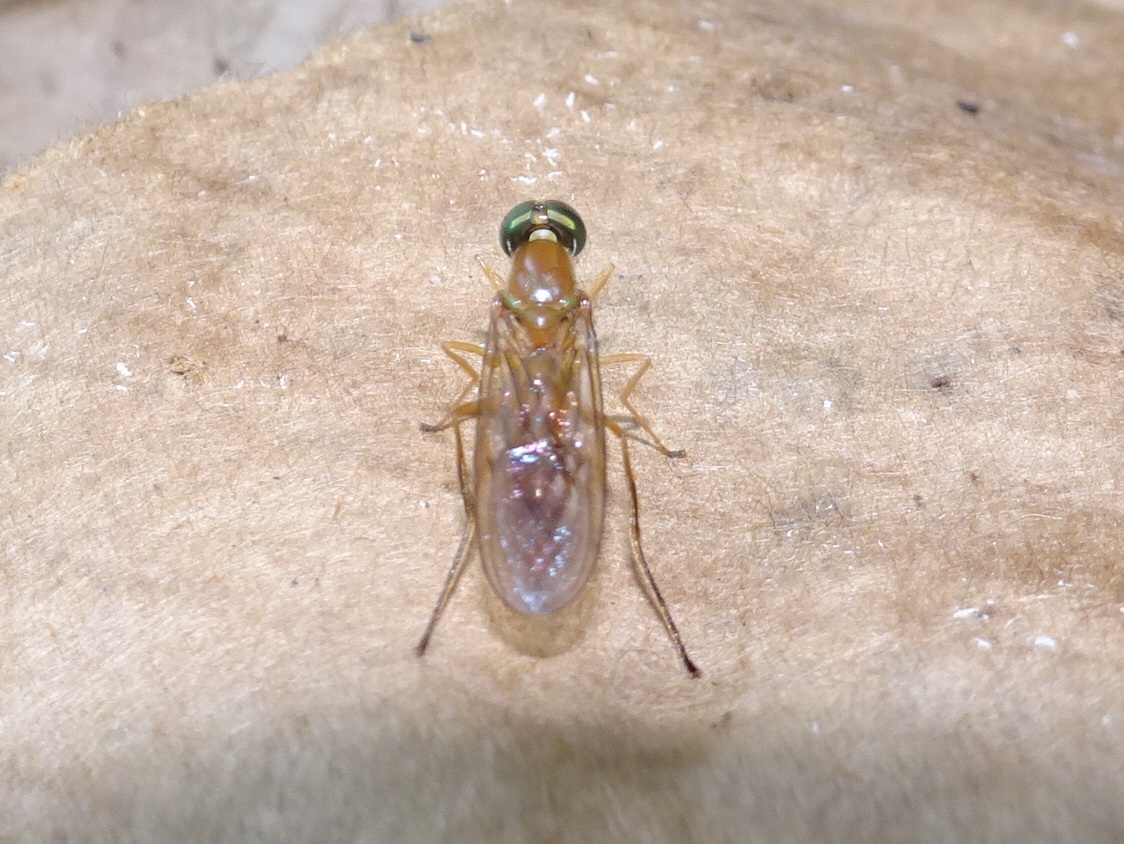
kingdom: Animalia
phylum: Arthropoda
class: Insecta
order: Diptera
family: Stratiomyidae
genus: Ptecticus
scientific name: Ptecticus trivittatus
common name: Compost fly
